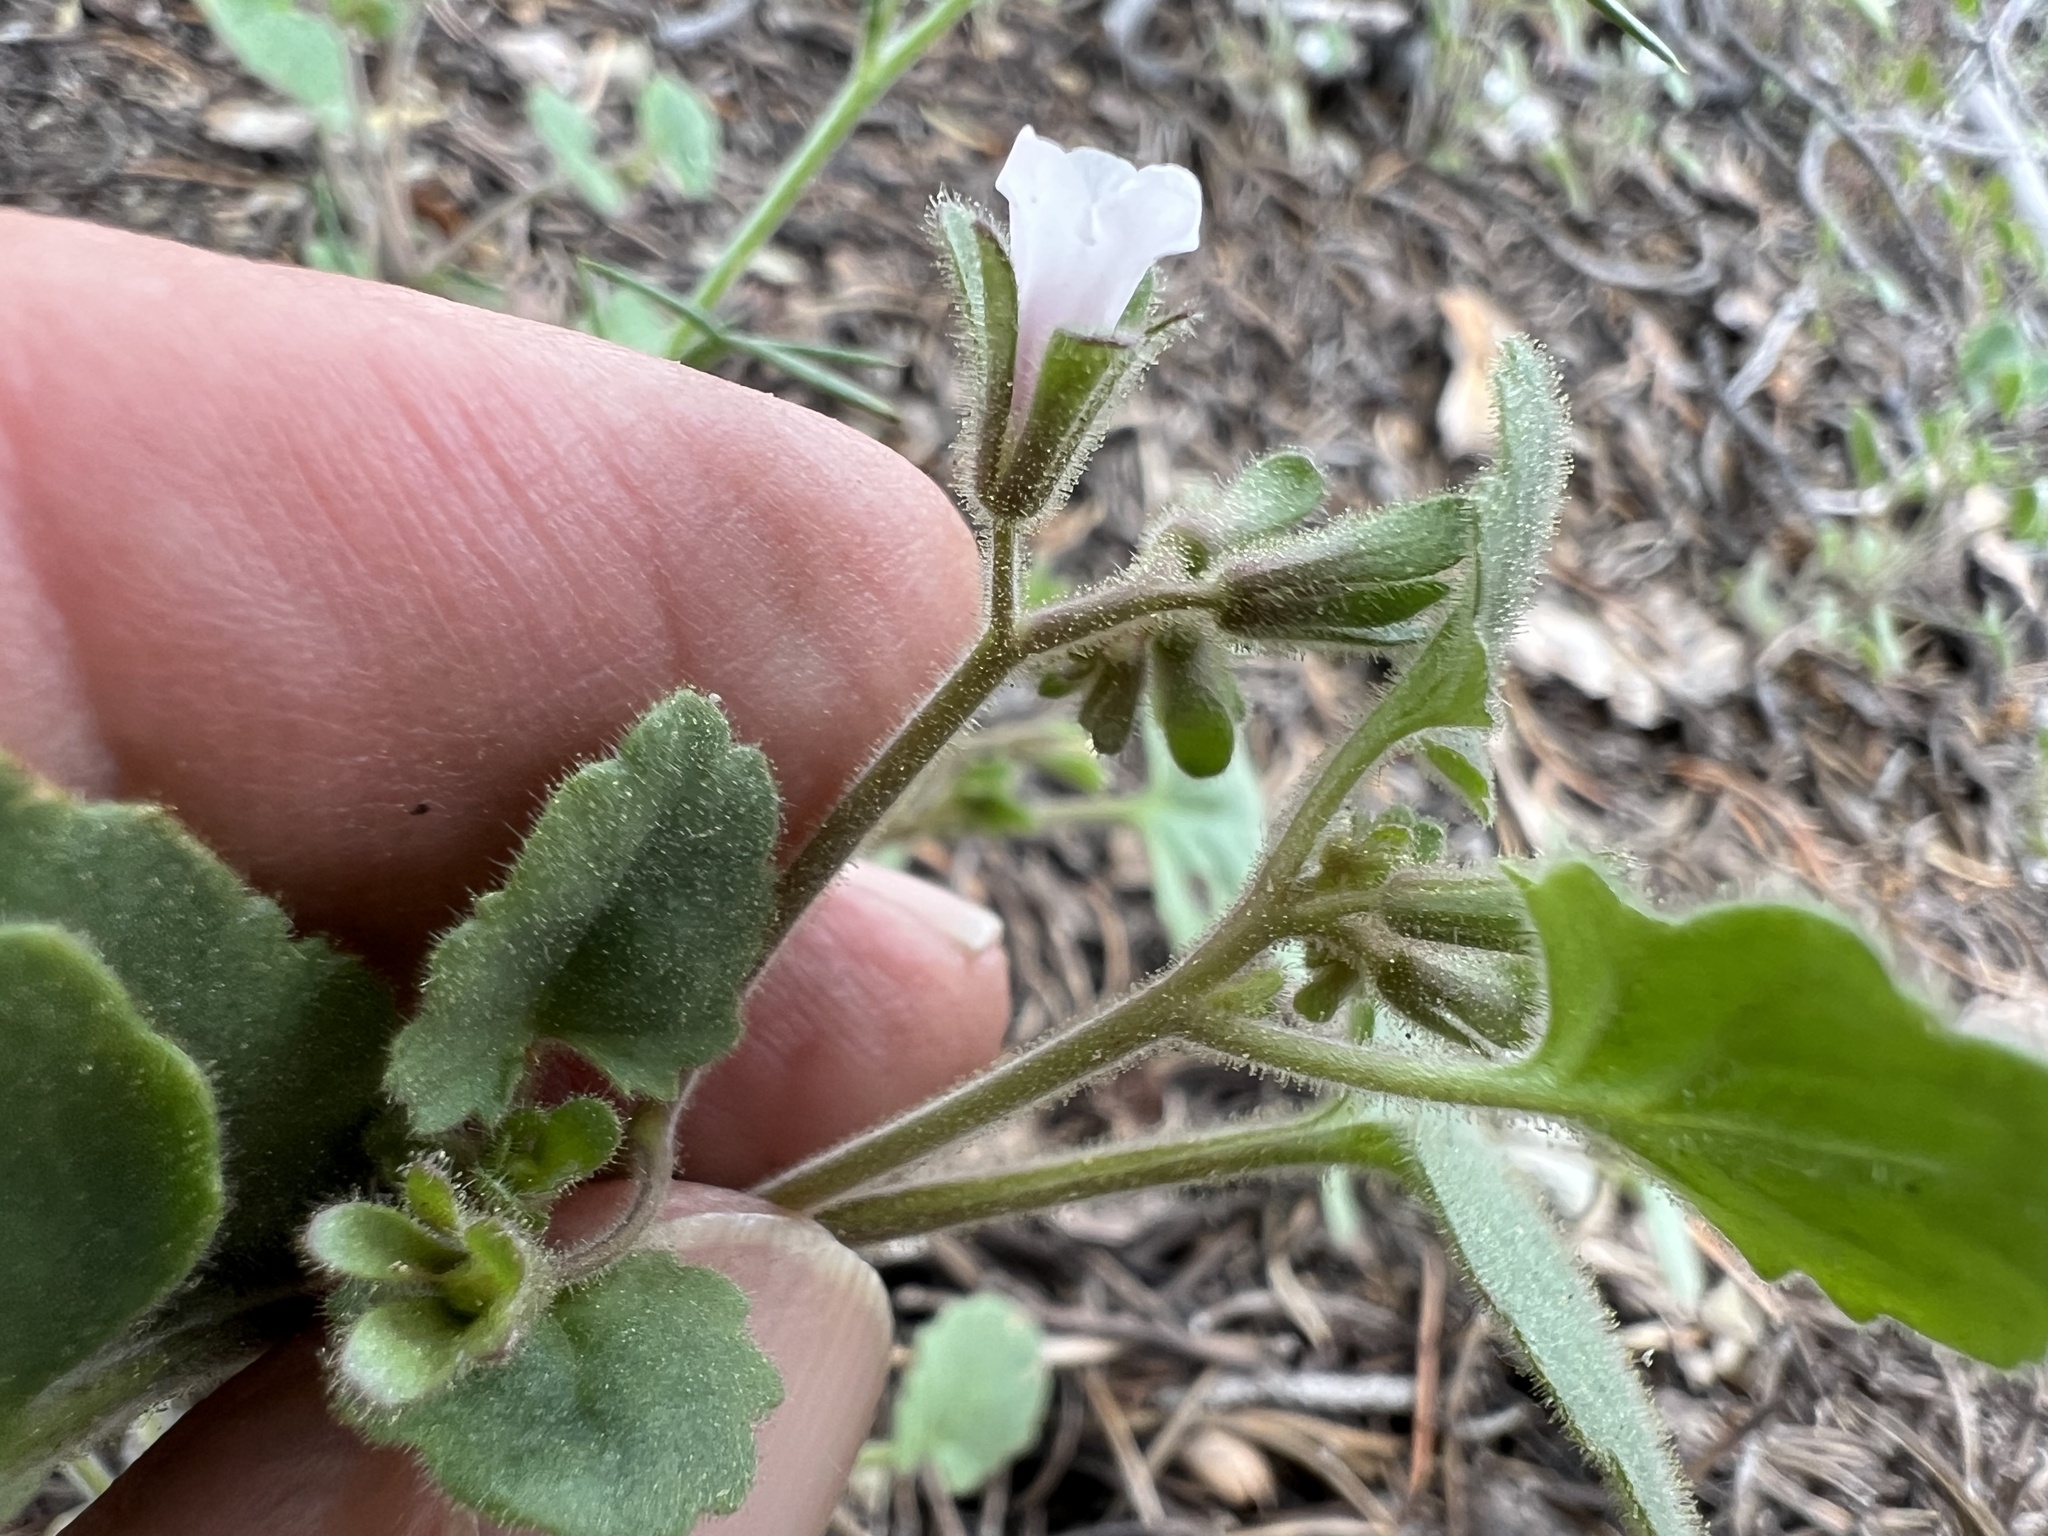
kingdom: Plantae
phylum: Tracheophyta
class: Magnoliopsida
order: Boraginales
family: Hydrophyllaceae
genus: Phacelia
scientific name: Phacelia peirsoniana
